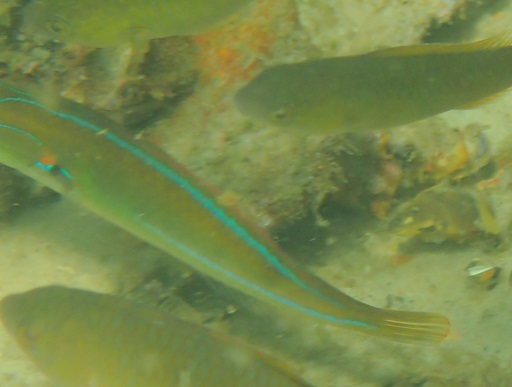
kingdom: Animalia
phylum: Chordata
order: Perciformes
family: Labridae
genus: Stethojulis
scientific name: Stethojulis interrupta
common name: Cutribbon wrasse
